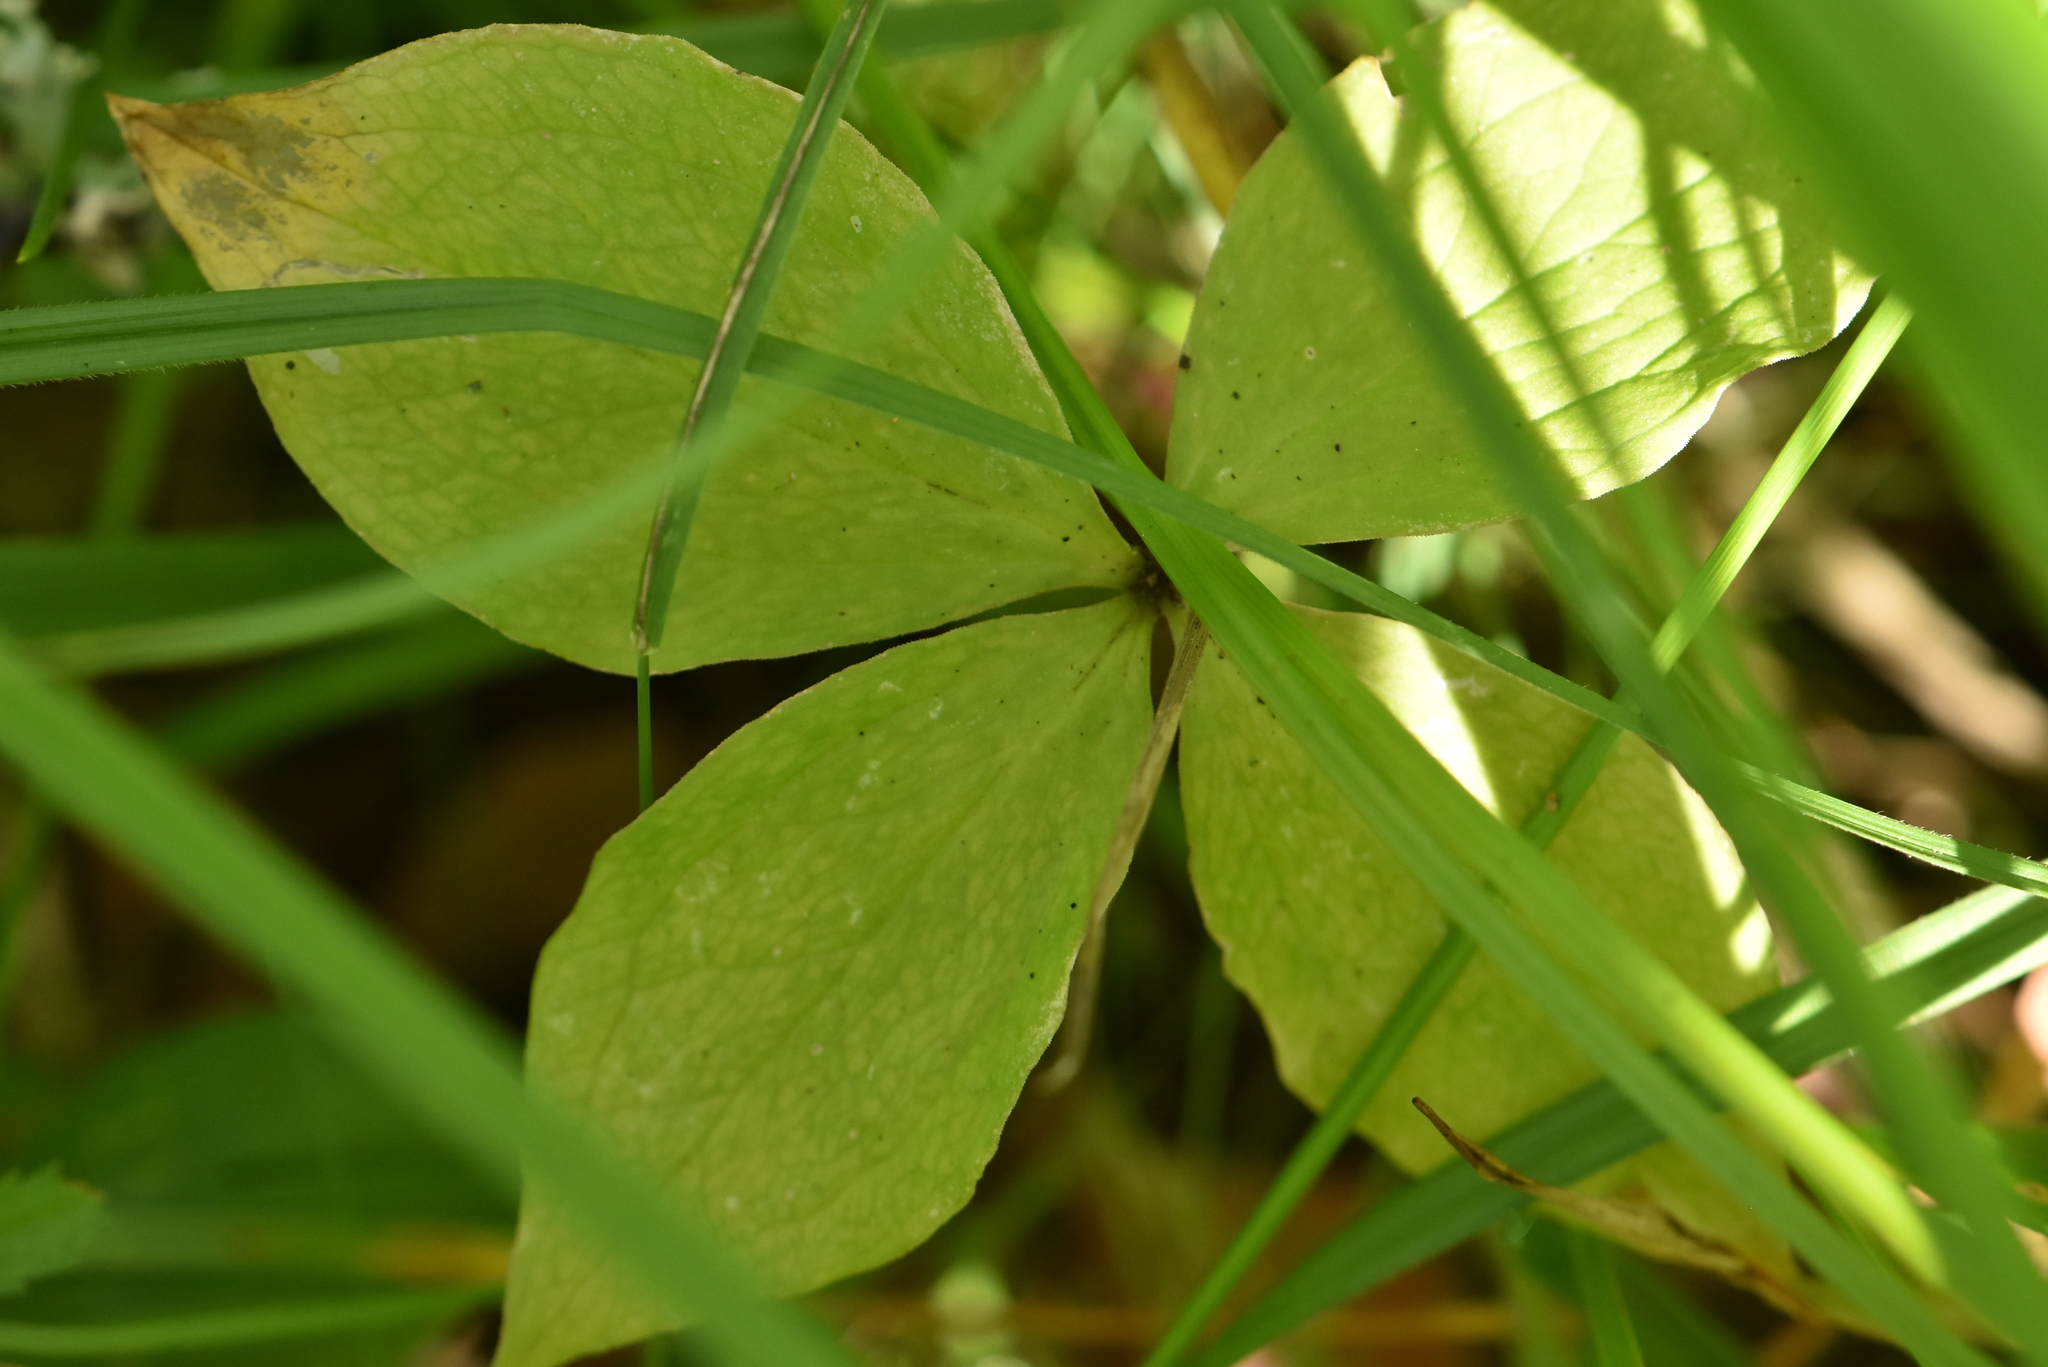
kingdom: Plantae
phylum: Tracheophyta
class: Liliopsida
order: Liliales
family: Melanthiaceae
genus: Paris
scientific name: Paris quadrifolia
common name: Herb-paris
